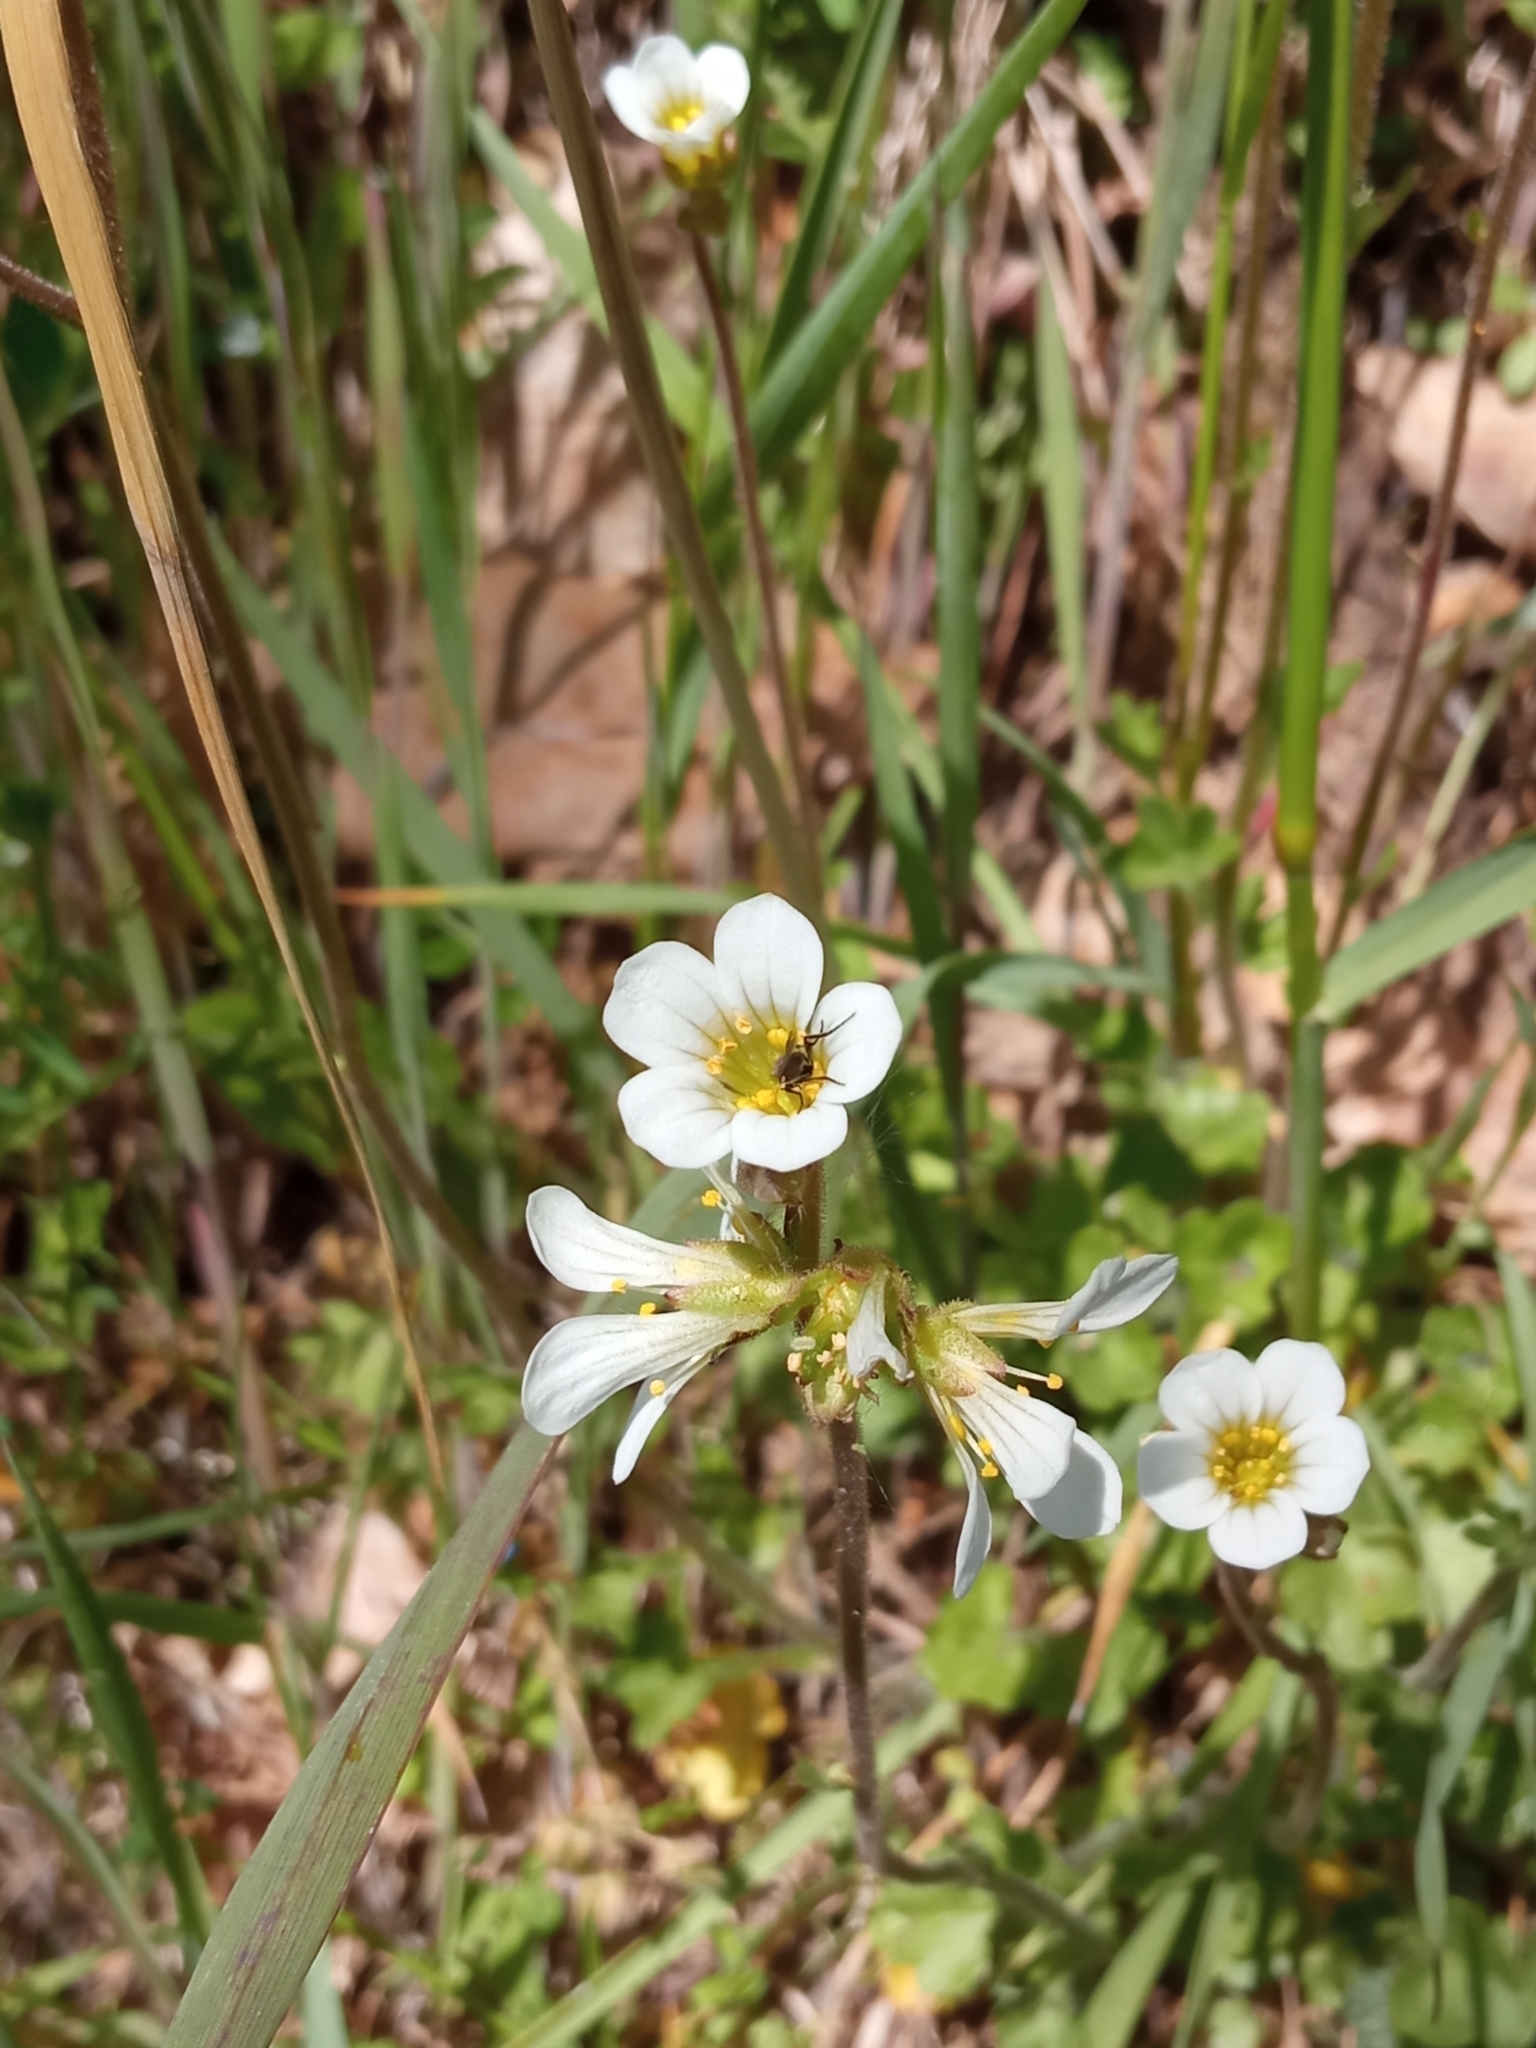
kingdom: Plantae
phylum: Tracheophyta
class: Magnoliopsida
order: Saxifragales
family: Saxifragaceae
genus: Saxifraga
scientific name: Saxifraga granulata
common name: Meadow saxifrage
